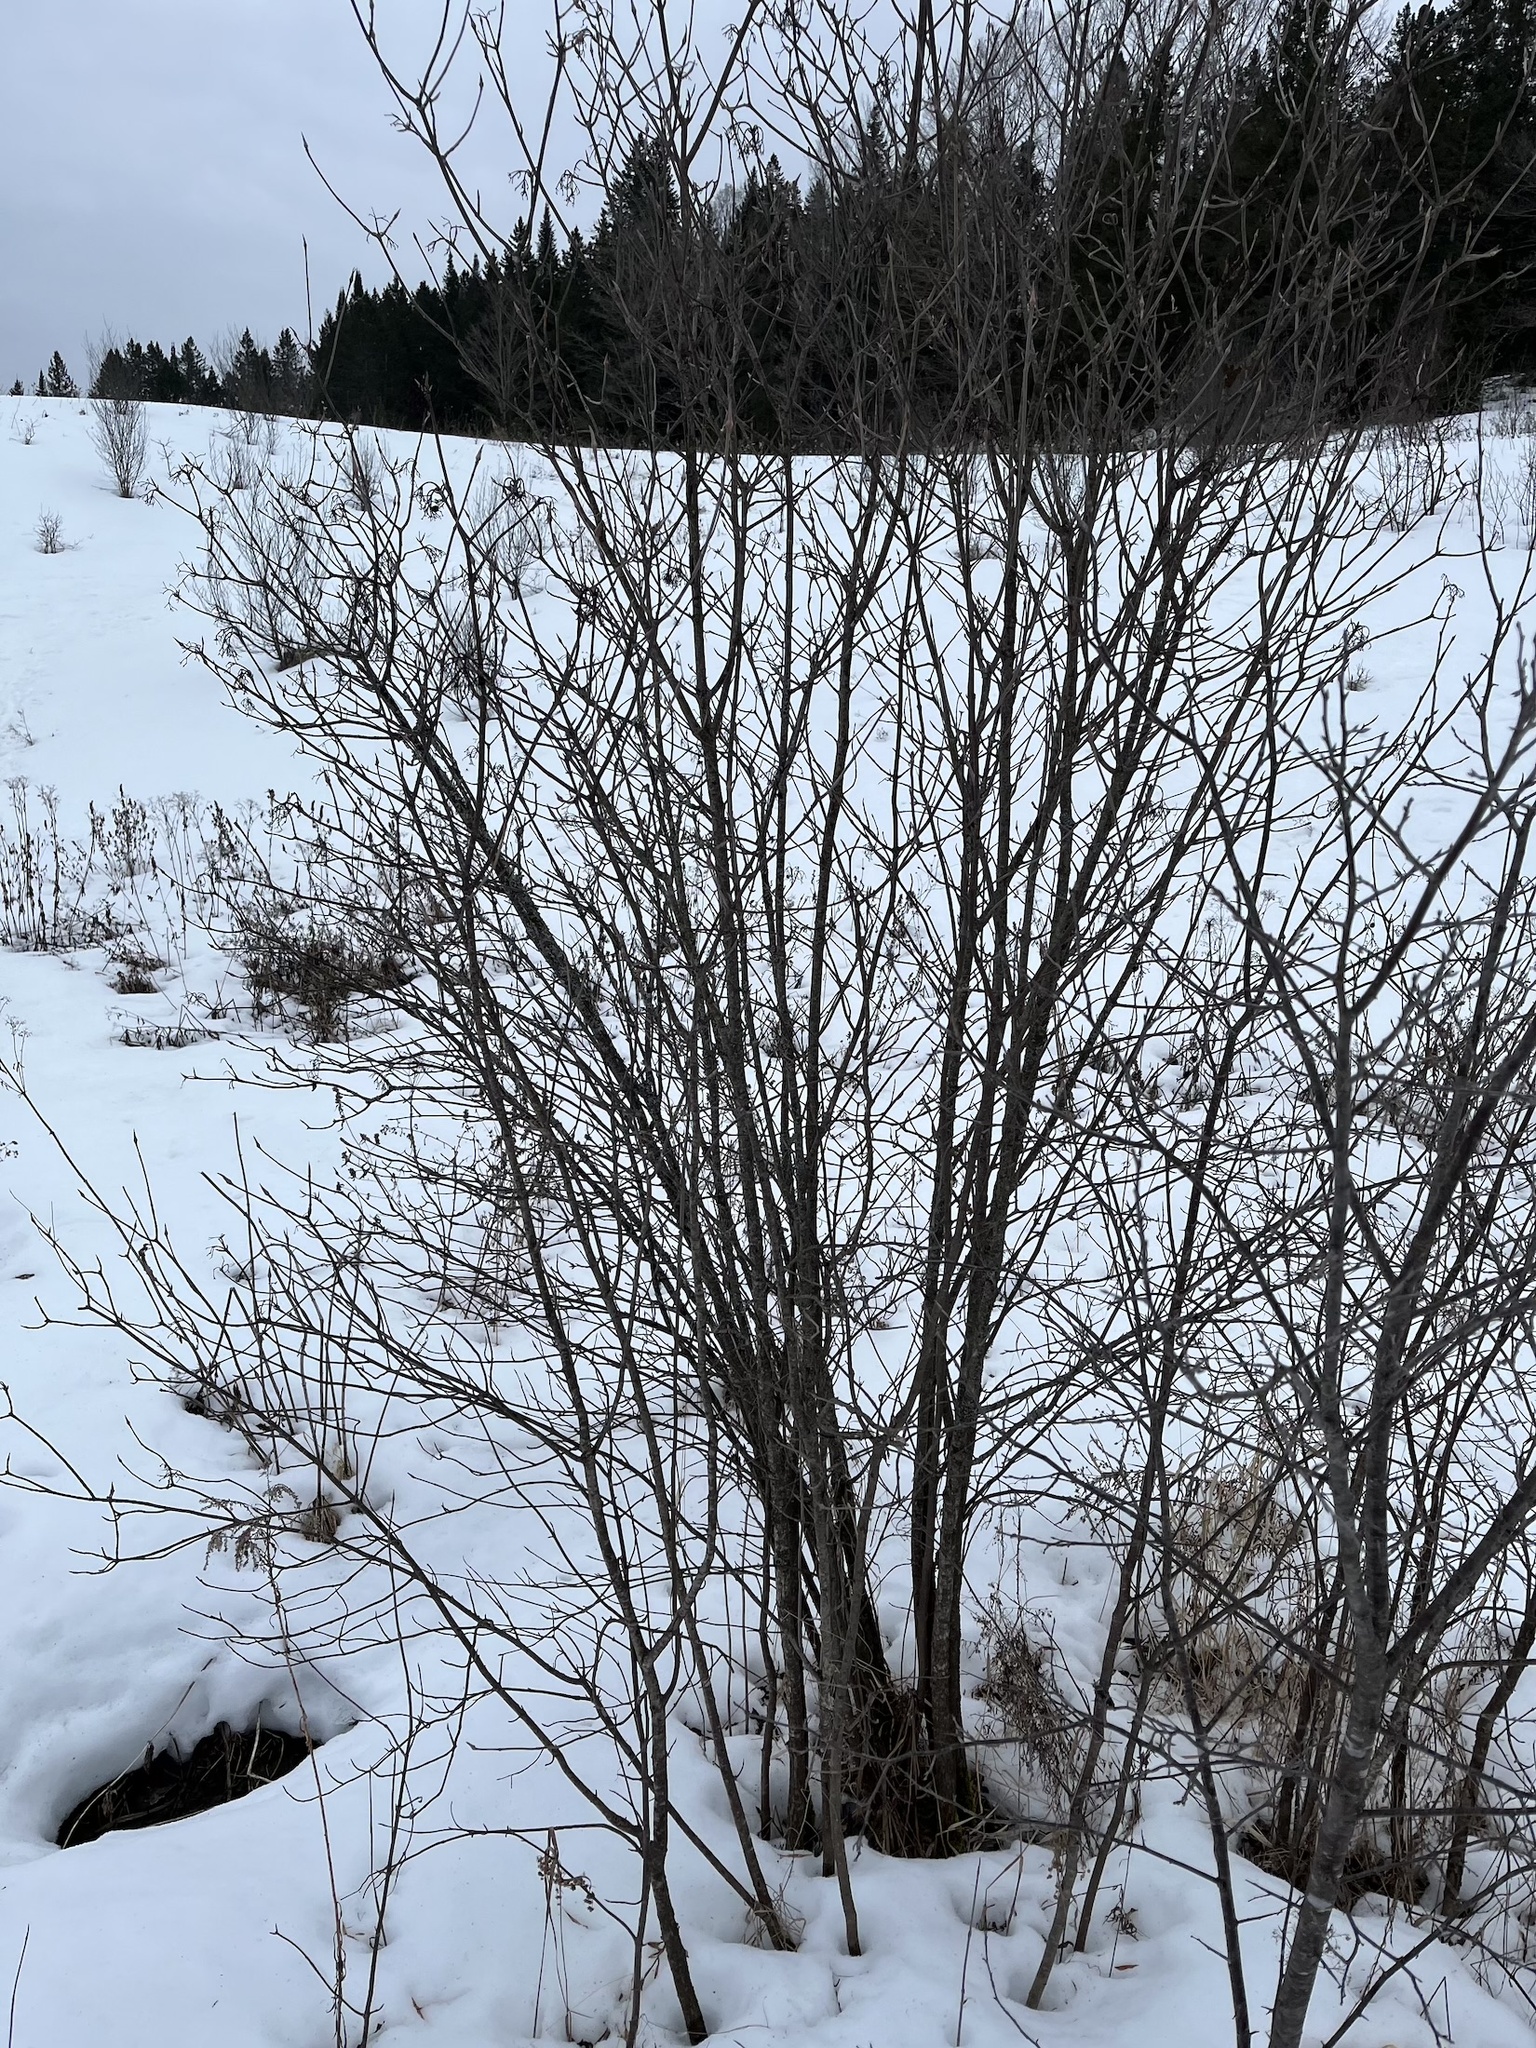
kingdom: Plantae
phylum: Tracheophyta
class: Magnoliopsida
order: Dipsacales
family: Viburnaceae
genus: Viburnum
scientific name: Viburnum lentago
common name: Black haw
